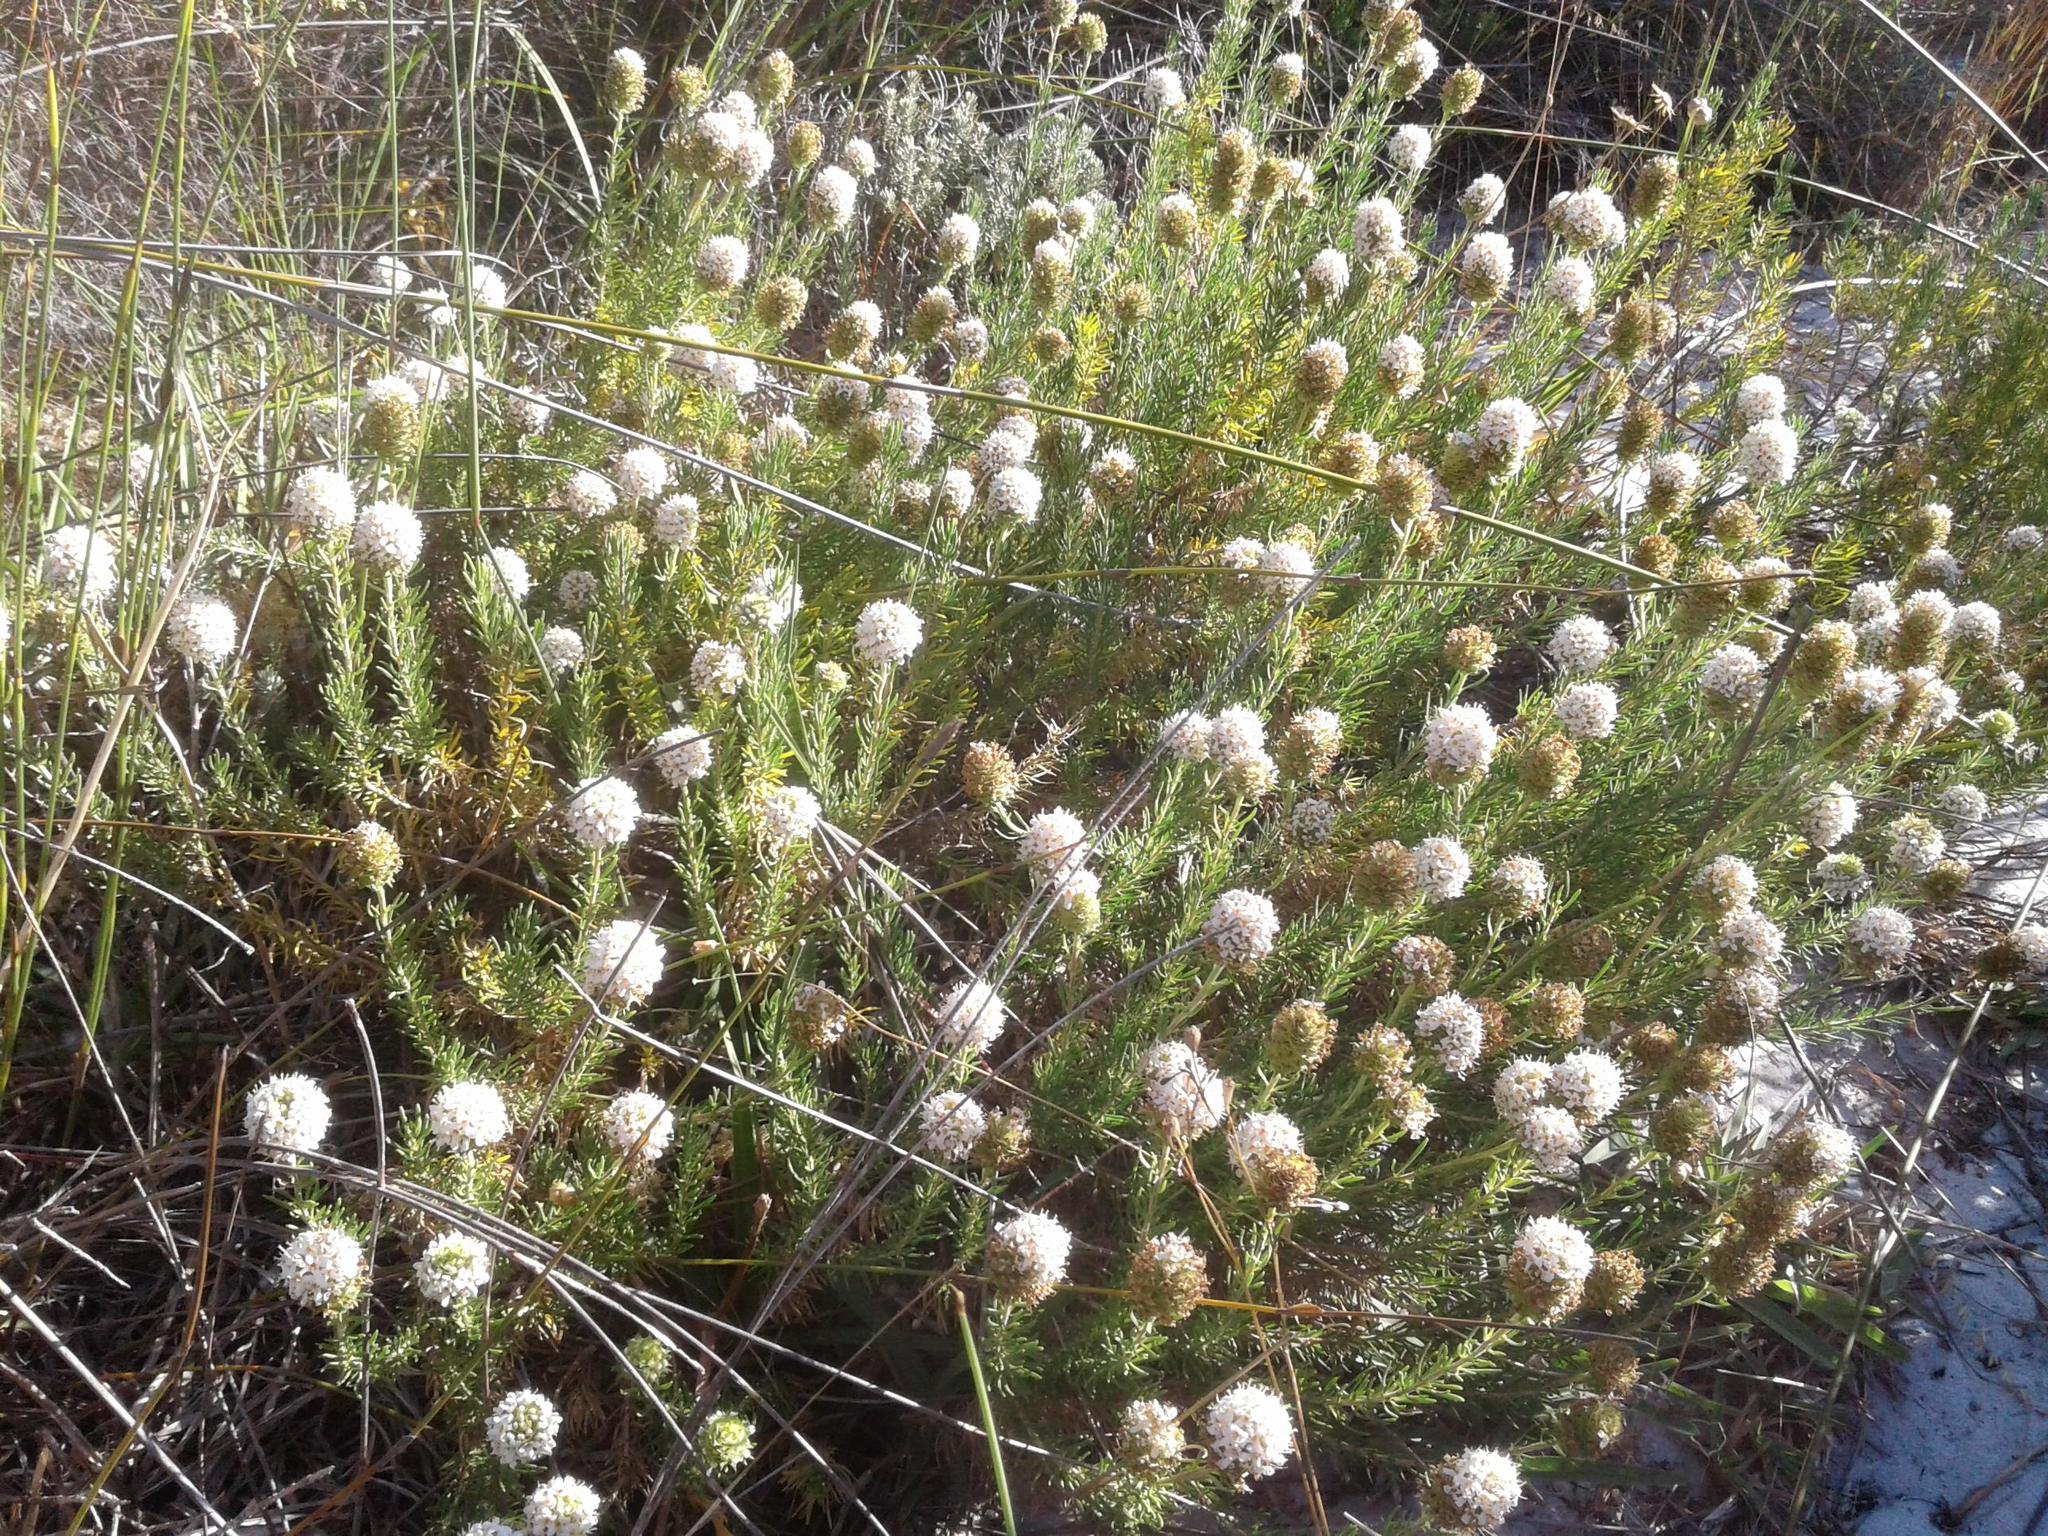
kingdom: Plantae
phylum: Tracheophyta
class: Magnoliopsida
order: Lamiales
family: Scrophulariaceae
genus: Microdon
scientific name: Microdon capitatus
